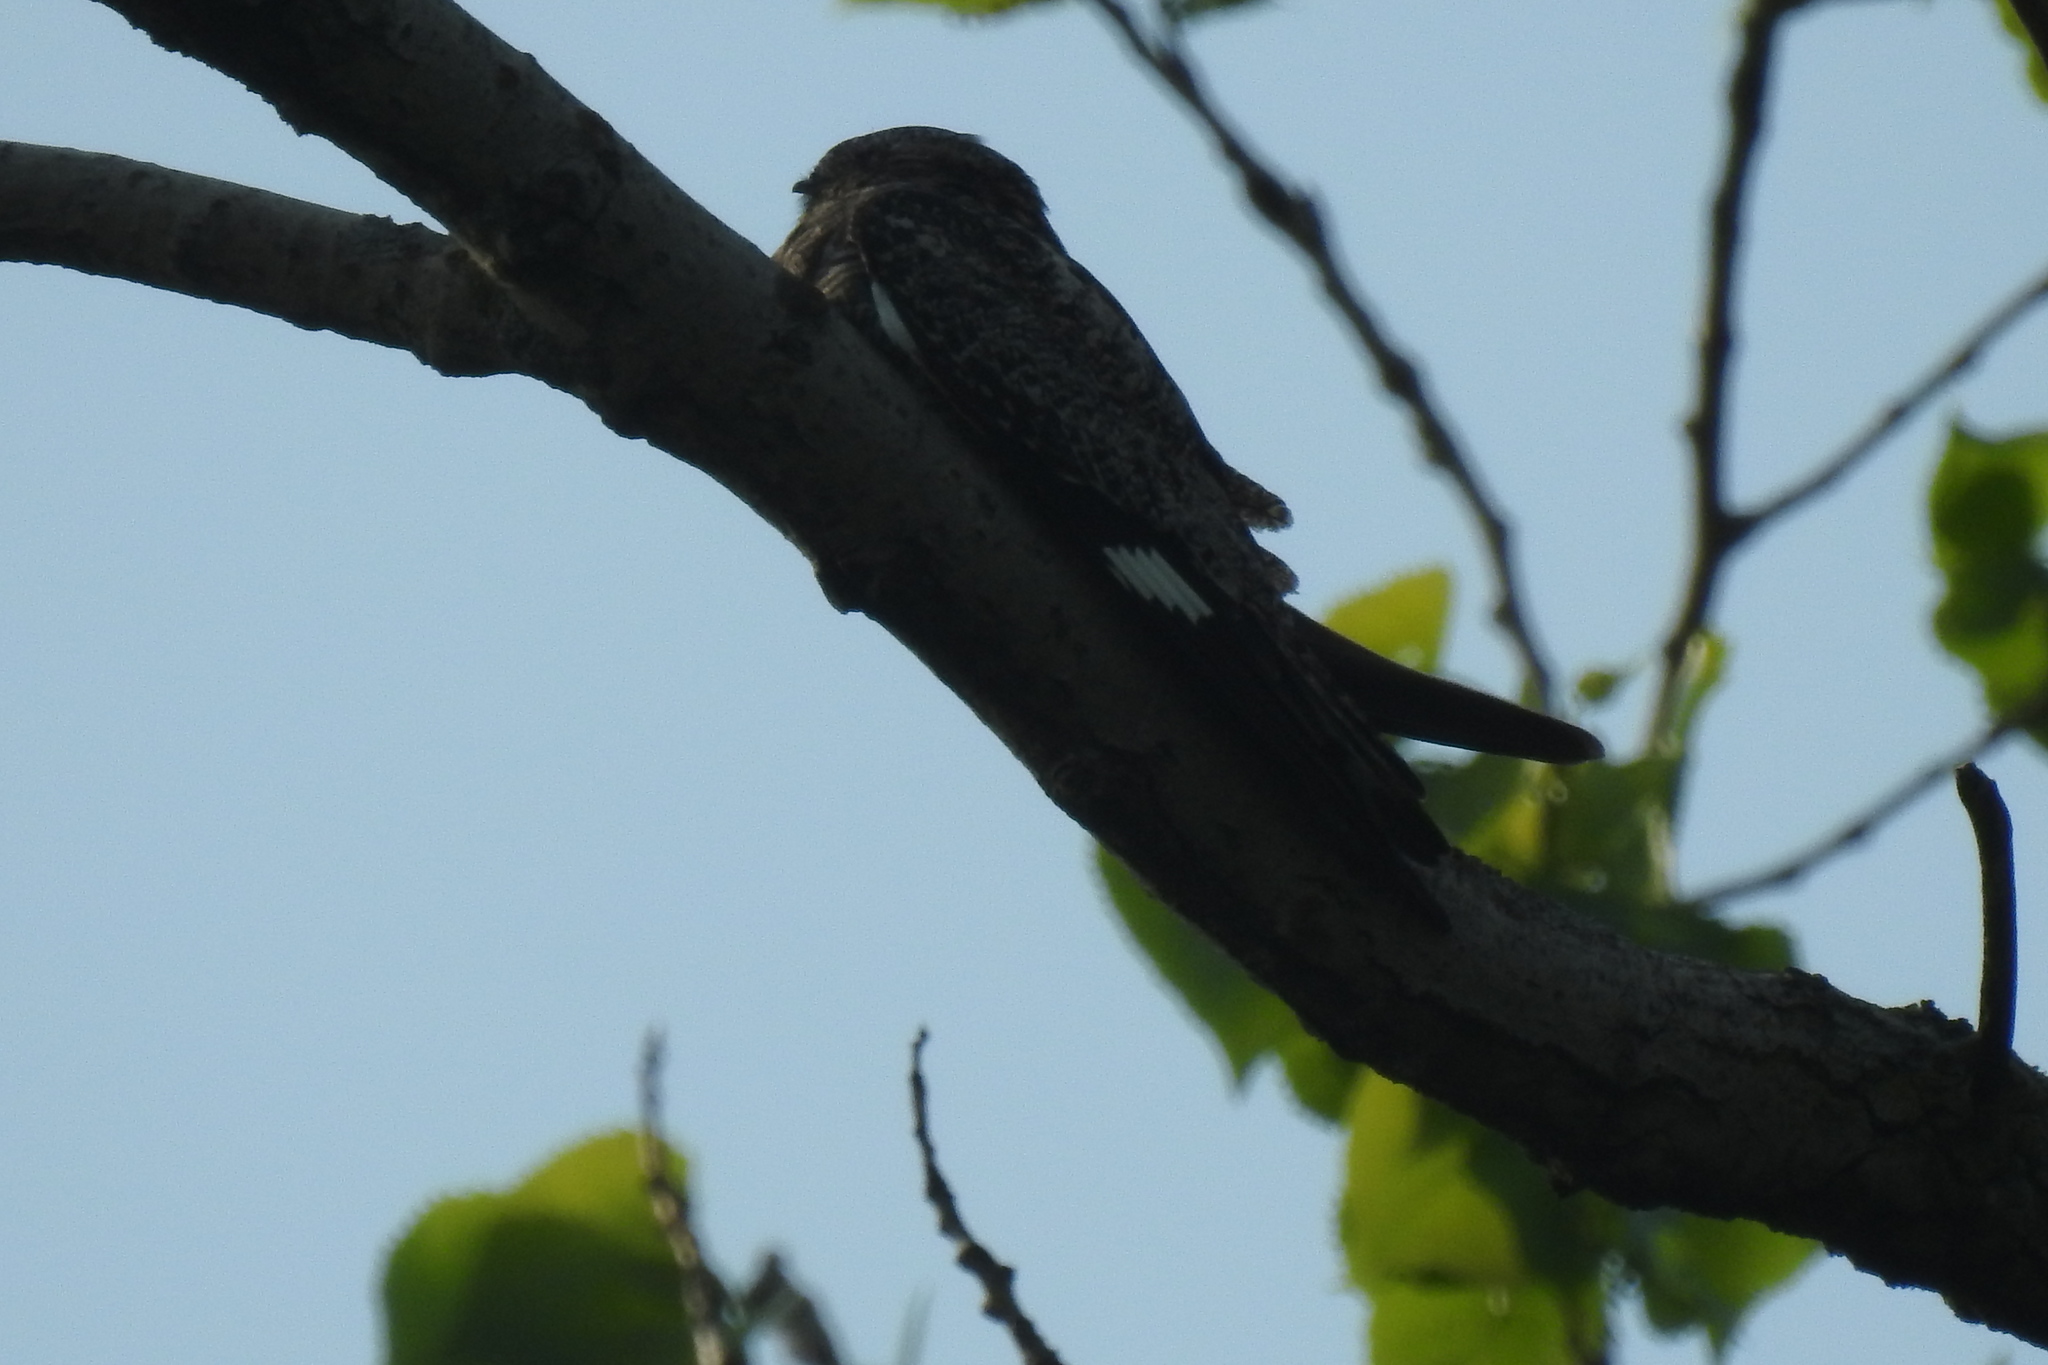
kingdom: Animalia
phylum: Chordata
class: Aves
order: Caprimulgiformes
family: Caprimulgidae
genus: Chordeiles
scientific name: Chordeiles minor
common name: Common nighthawk
